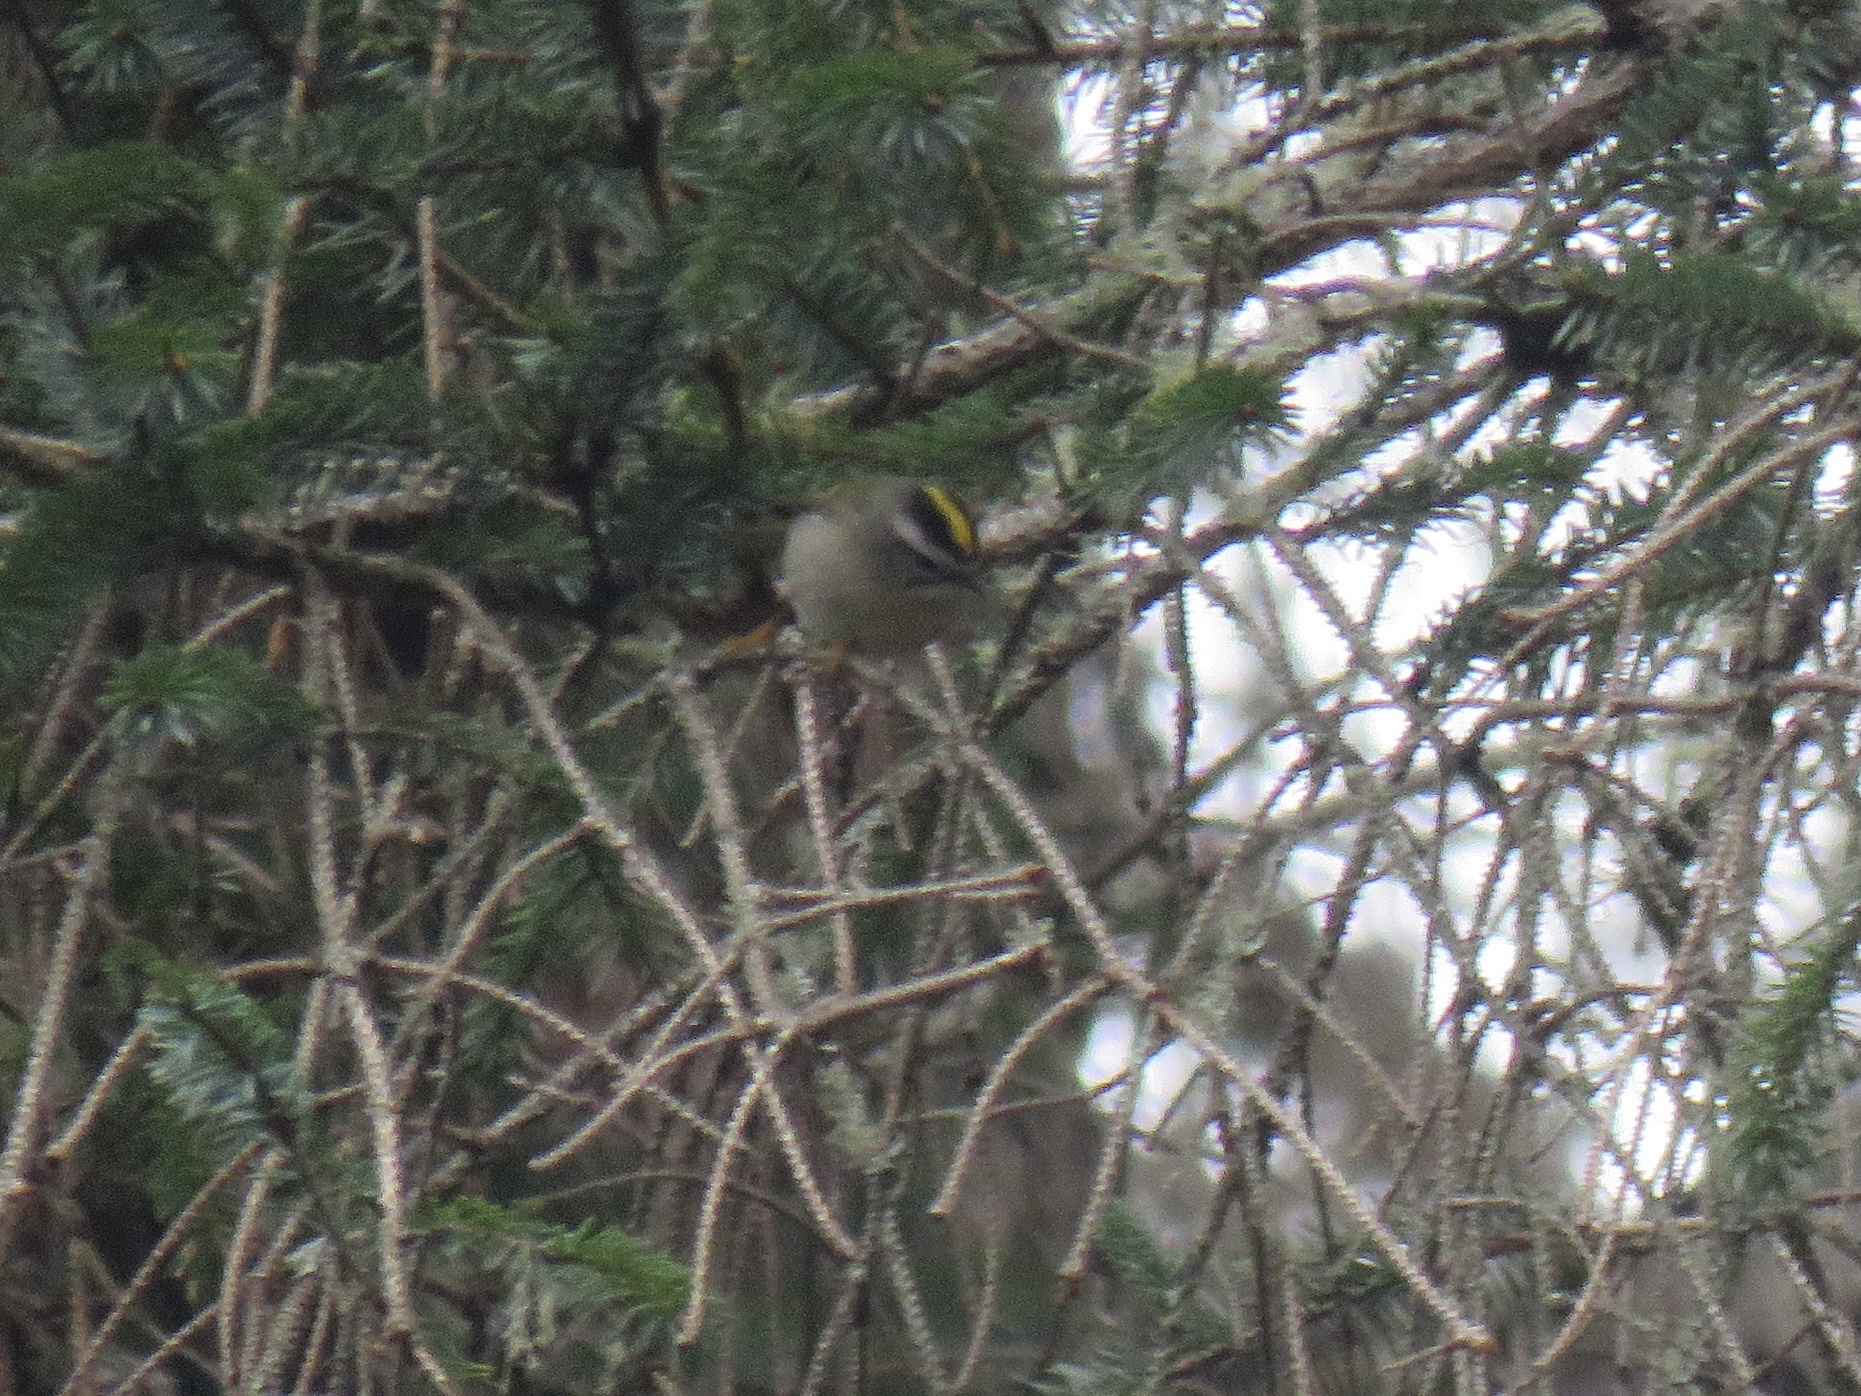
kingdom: Animalia
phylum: Chordata
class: Aves
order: Passeriformes
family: Regulidae
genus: Regulus
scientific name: Regulus satrapa
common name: Golden-crowned kinglet
